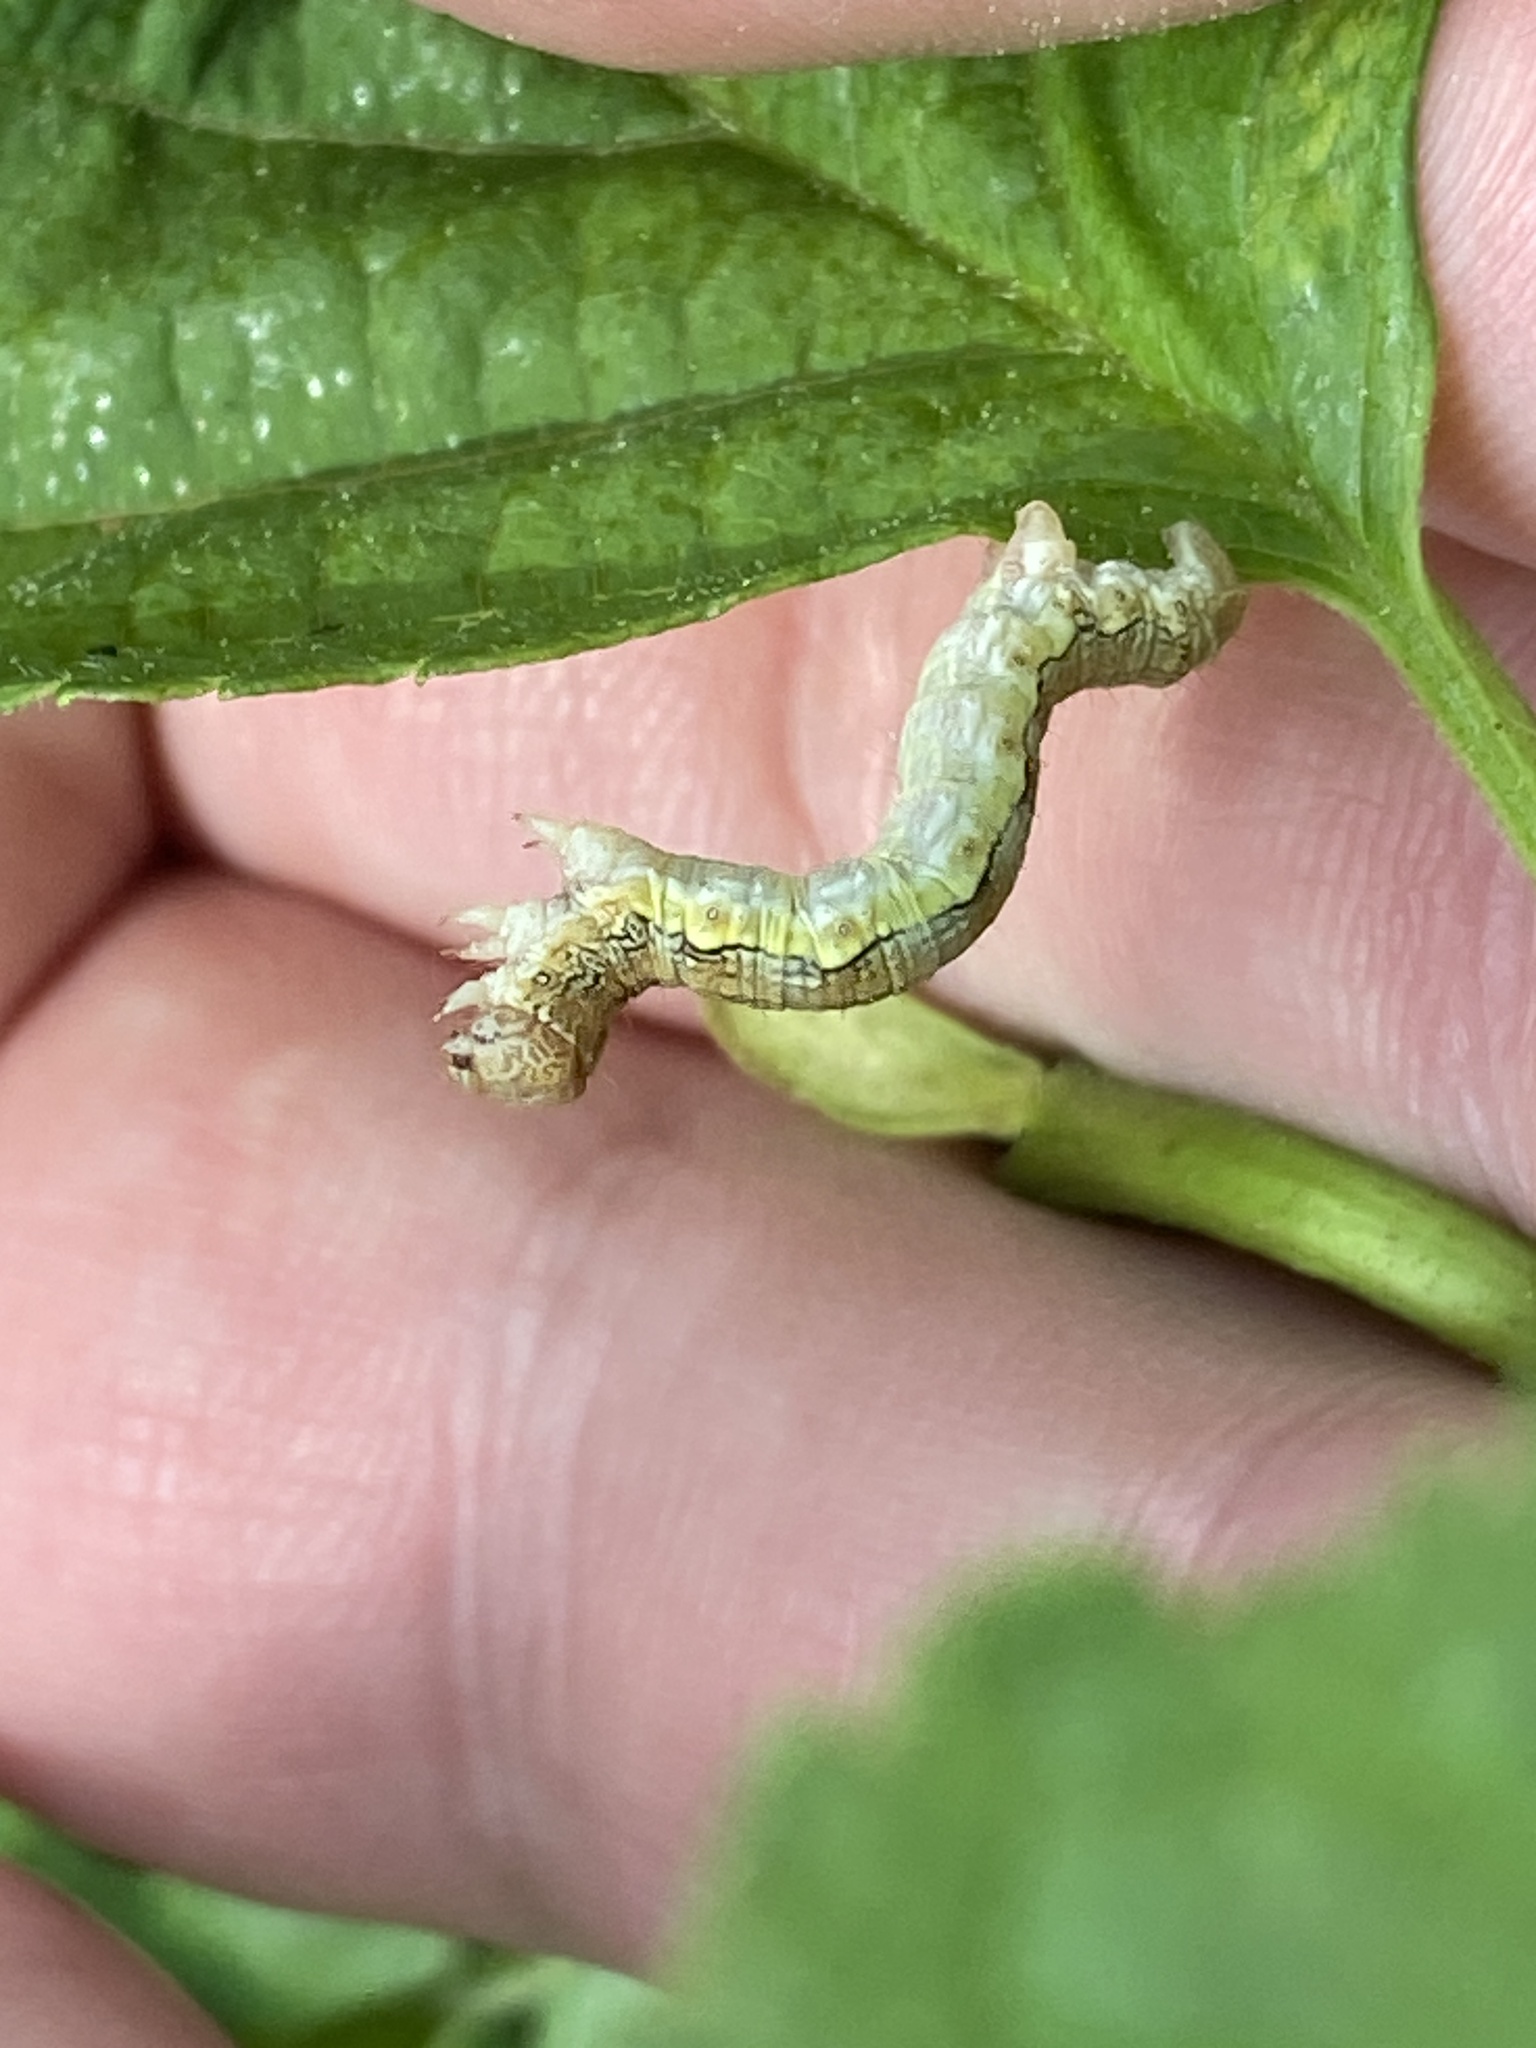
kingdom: Animalia
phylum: Arthropoda
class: Insecta
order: Lepidoptera
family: Geometridae
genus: Erannis
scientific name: Erannis defoliaria
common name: Mottled umber
